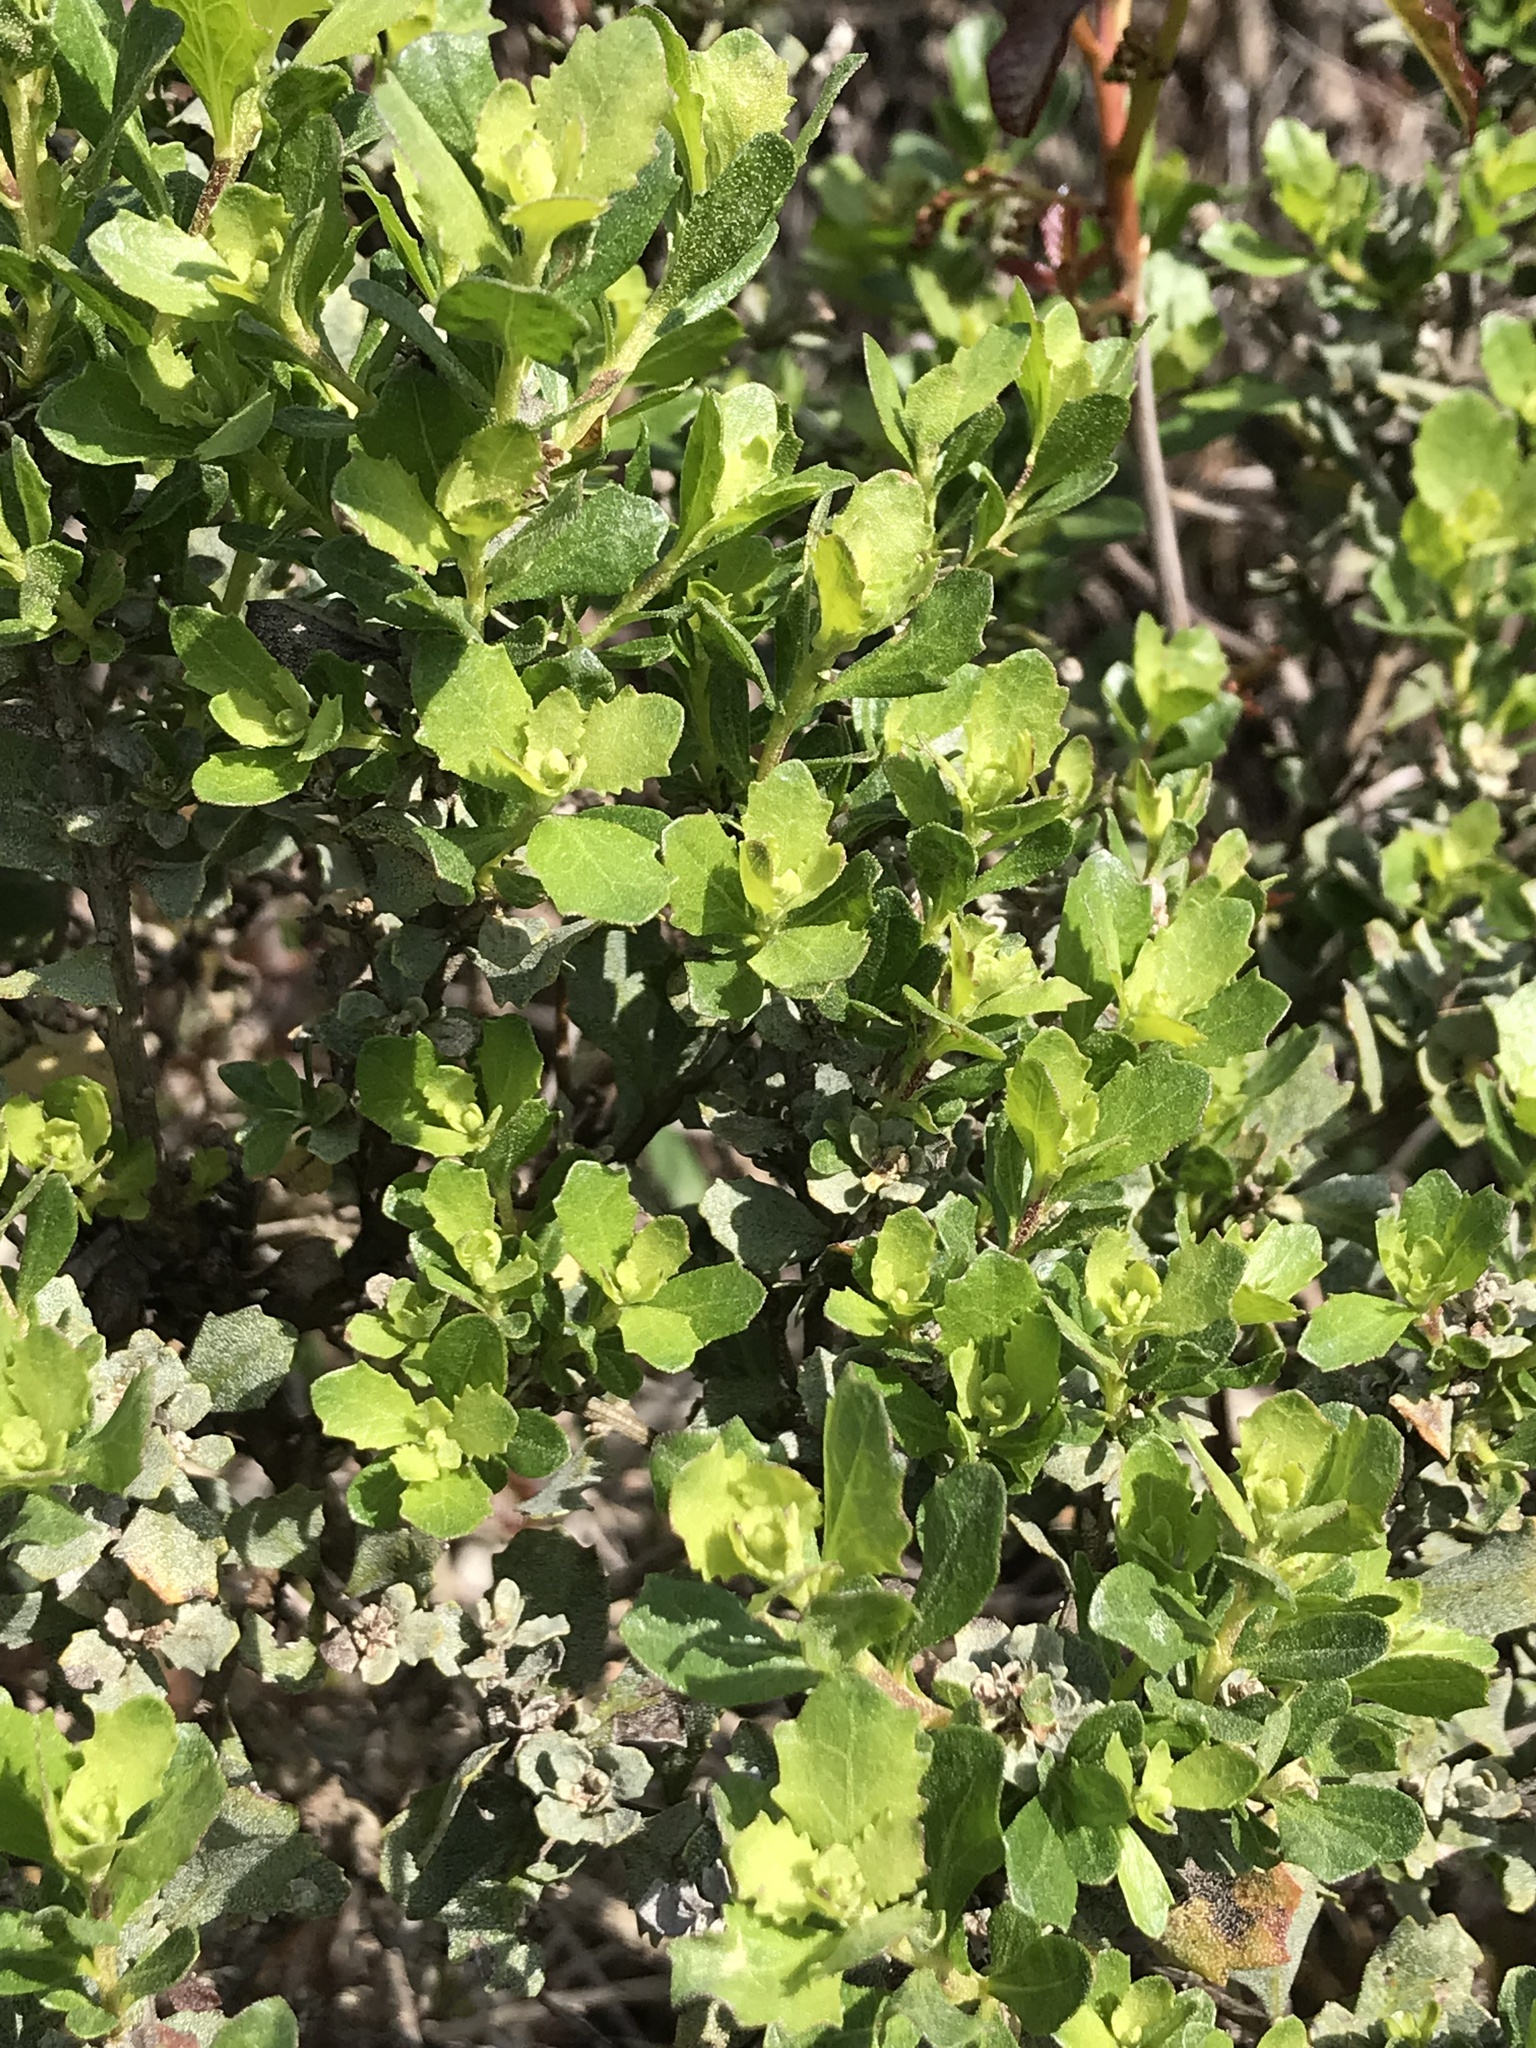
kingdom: Plantae
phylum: Tracheophyta
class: Magnoliopsida
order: Asterales
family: Asteraceae
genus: Baccharis
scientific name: Baccharis pilularis
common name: Coyotebrush
